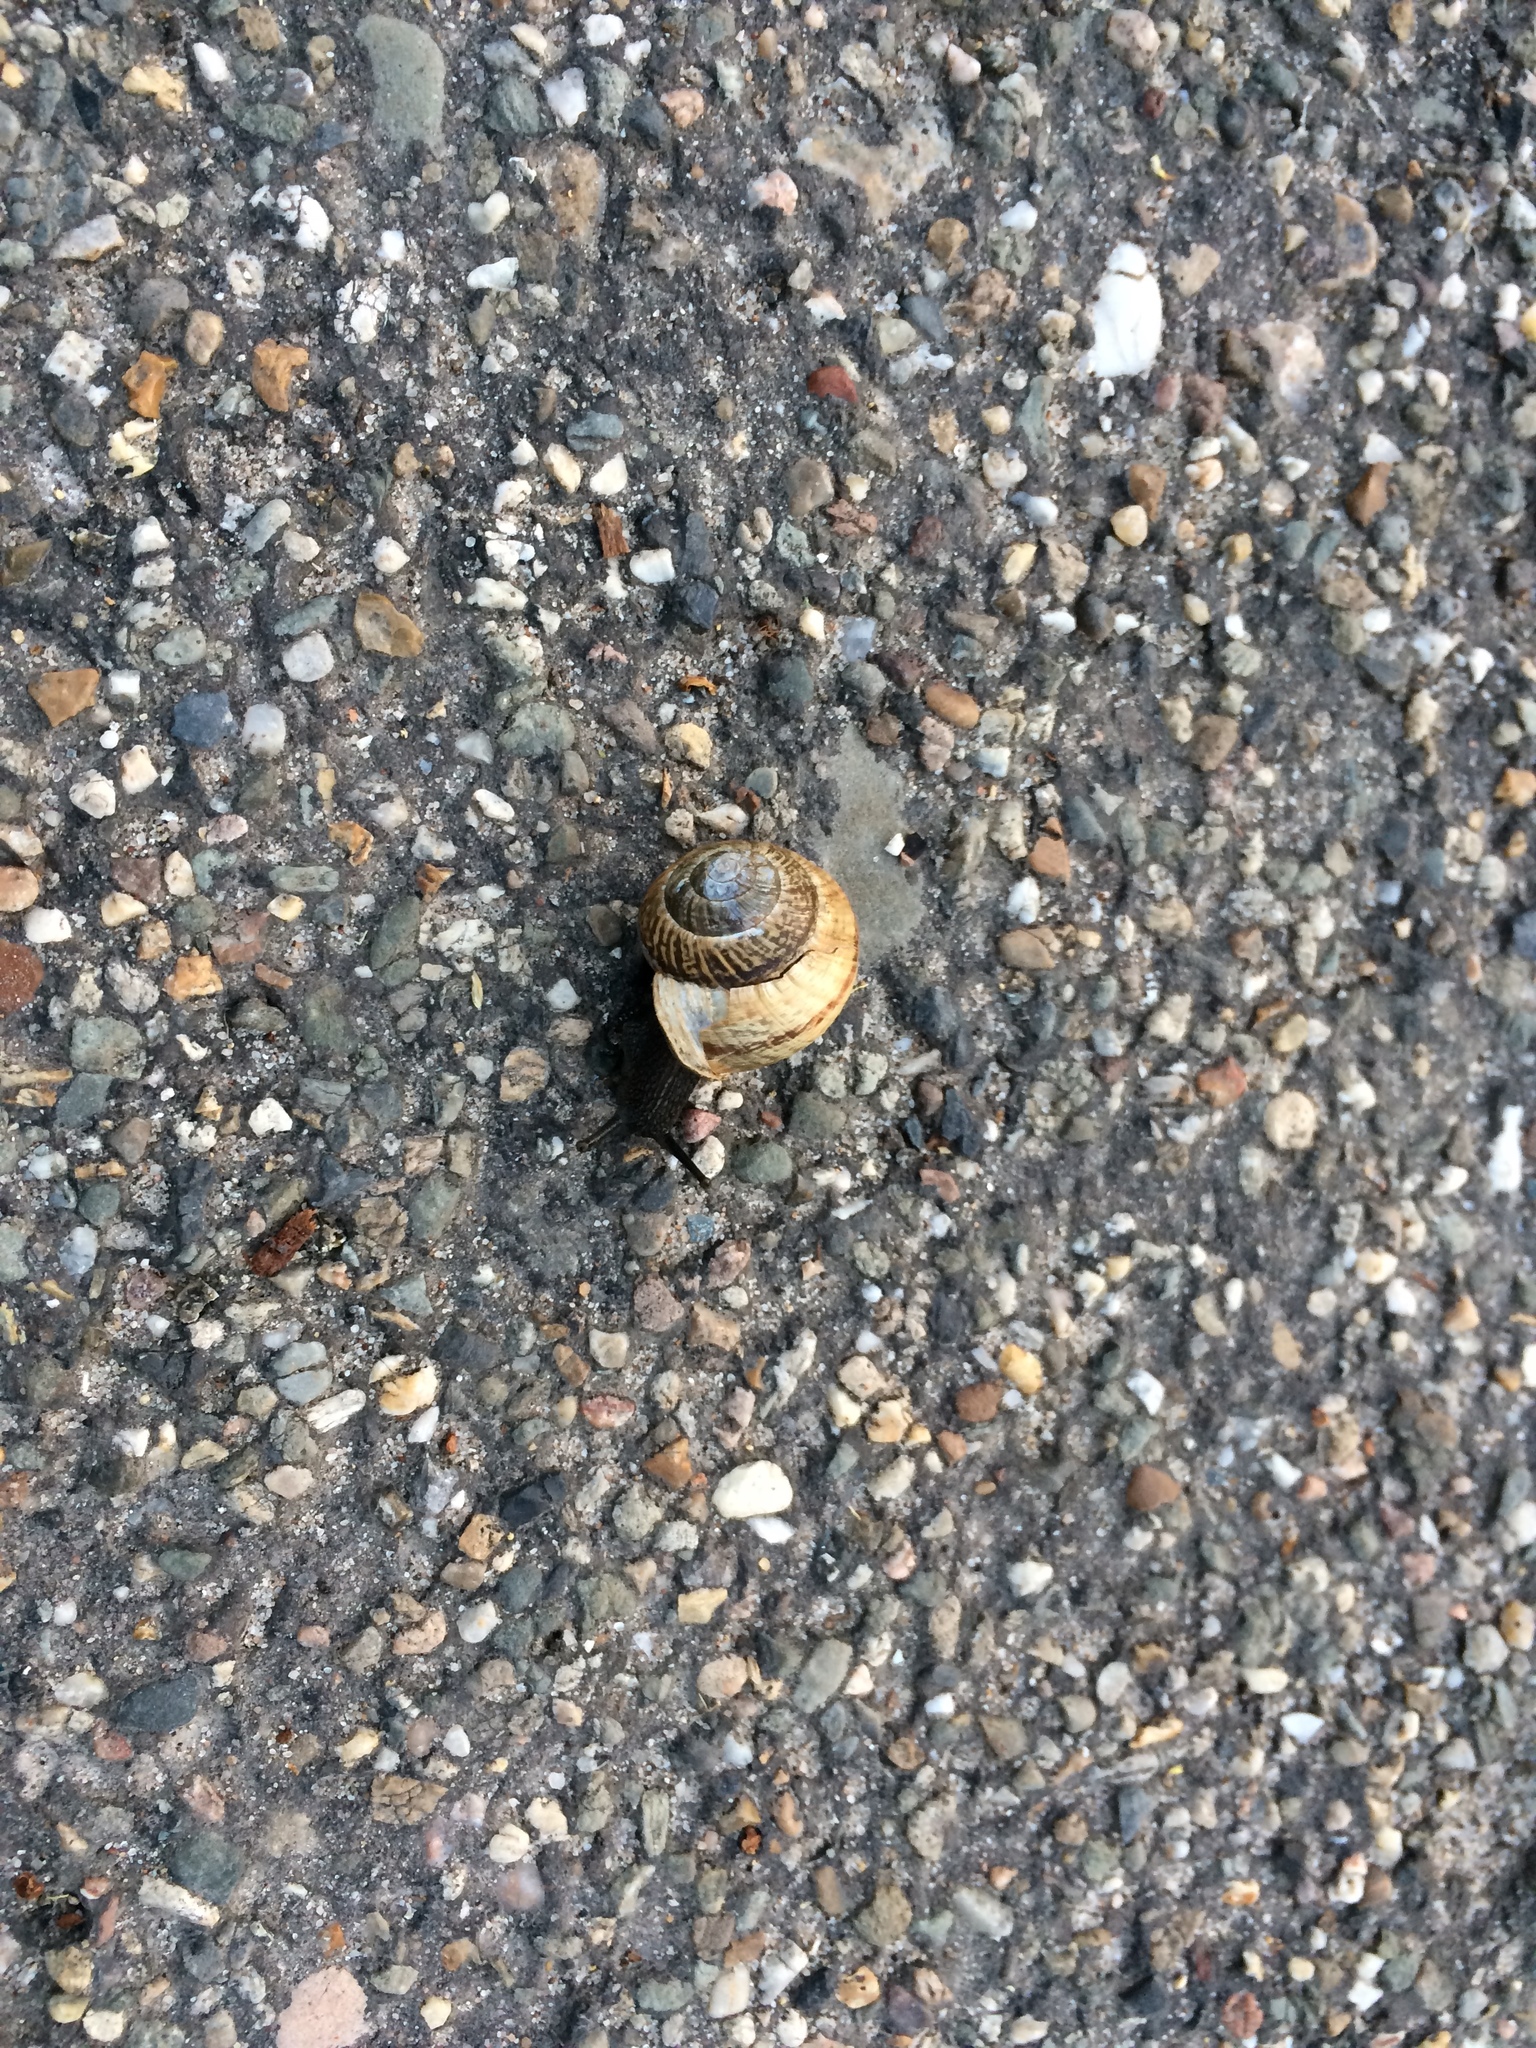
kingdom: Animalia
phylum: Mollusca
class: Gastropoda
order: Stylommatophora
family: Helicidae
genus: Arianta
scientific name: Arianta arbustorum
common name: Copse snail
